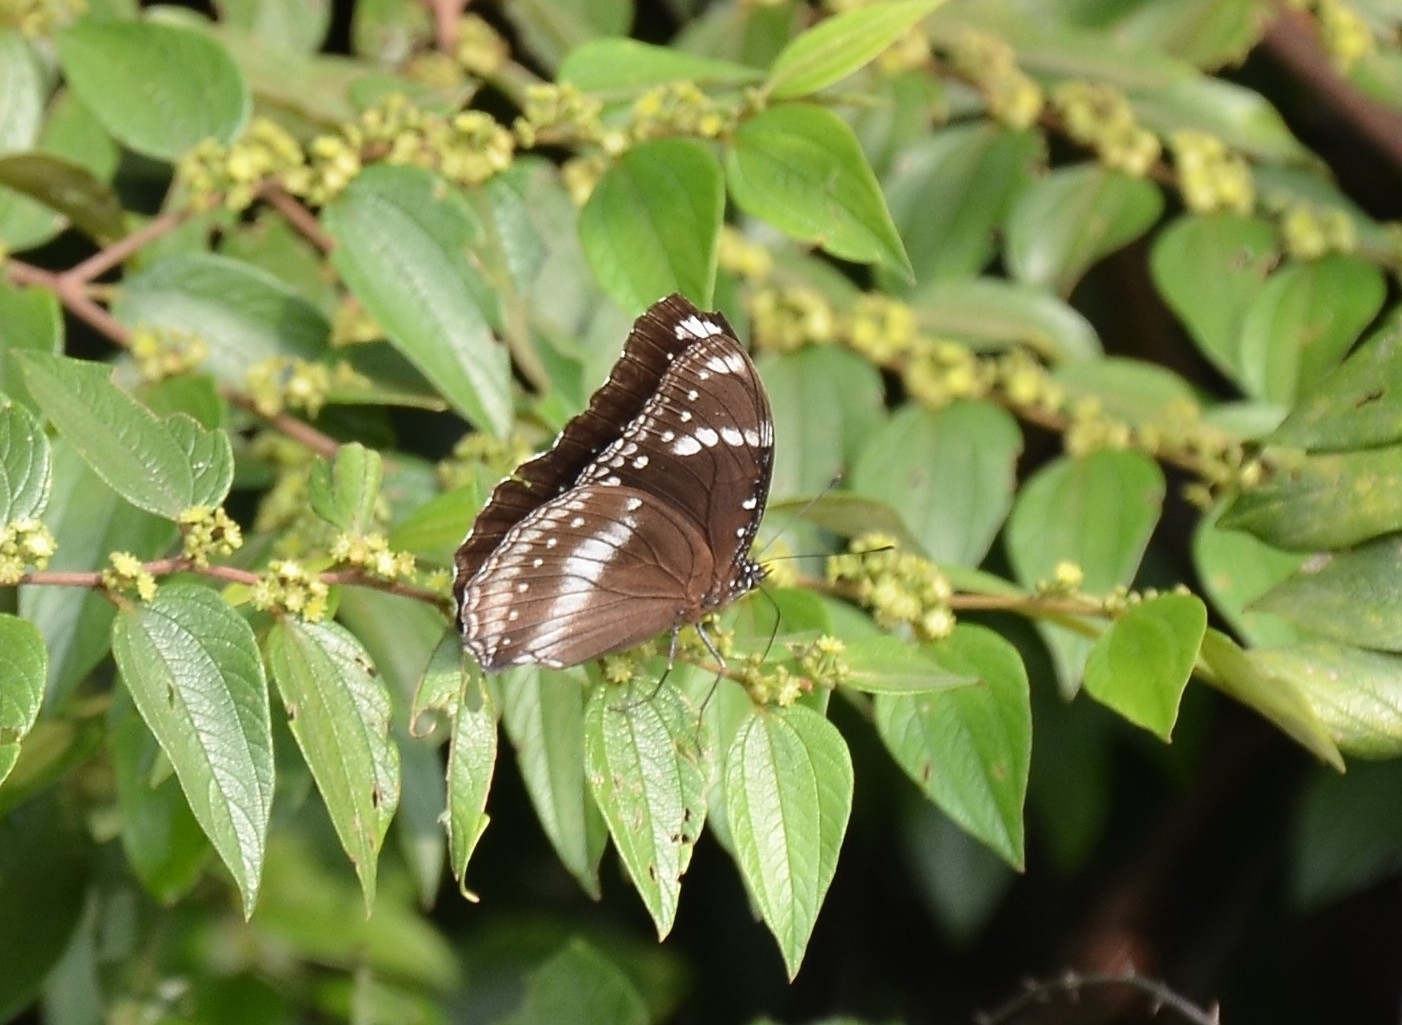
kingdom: Animalia
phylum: Arthropoda
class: Insecta
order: Lepidoptera
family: Nymphalidae
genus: Hypolimnas
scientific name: Hypolimnas bolina
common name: Great eggfly
